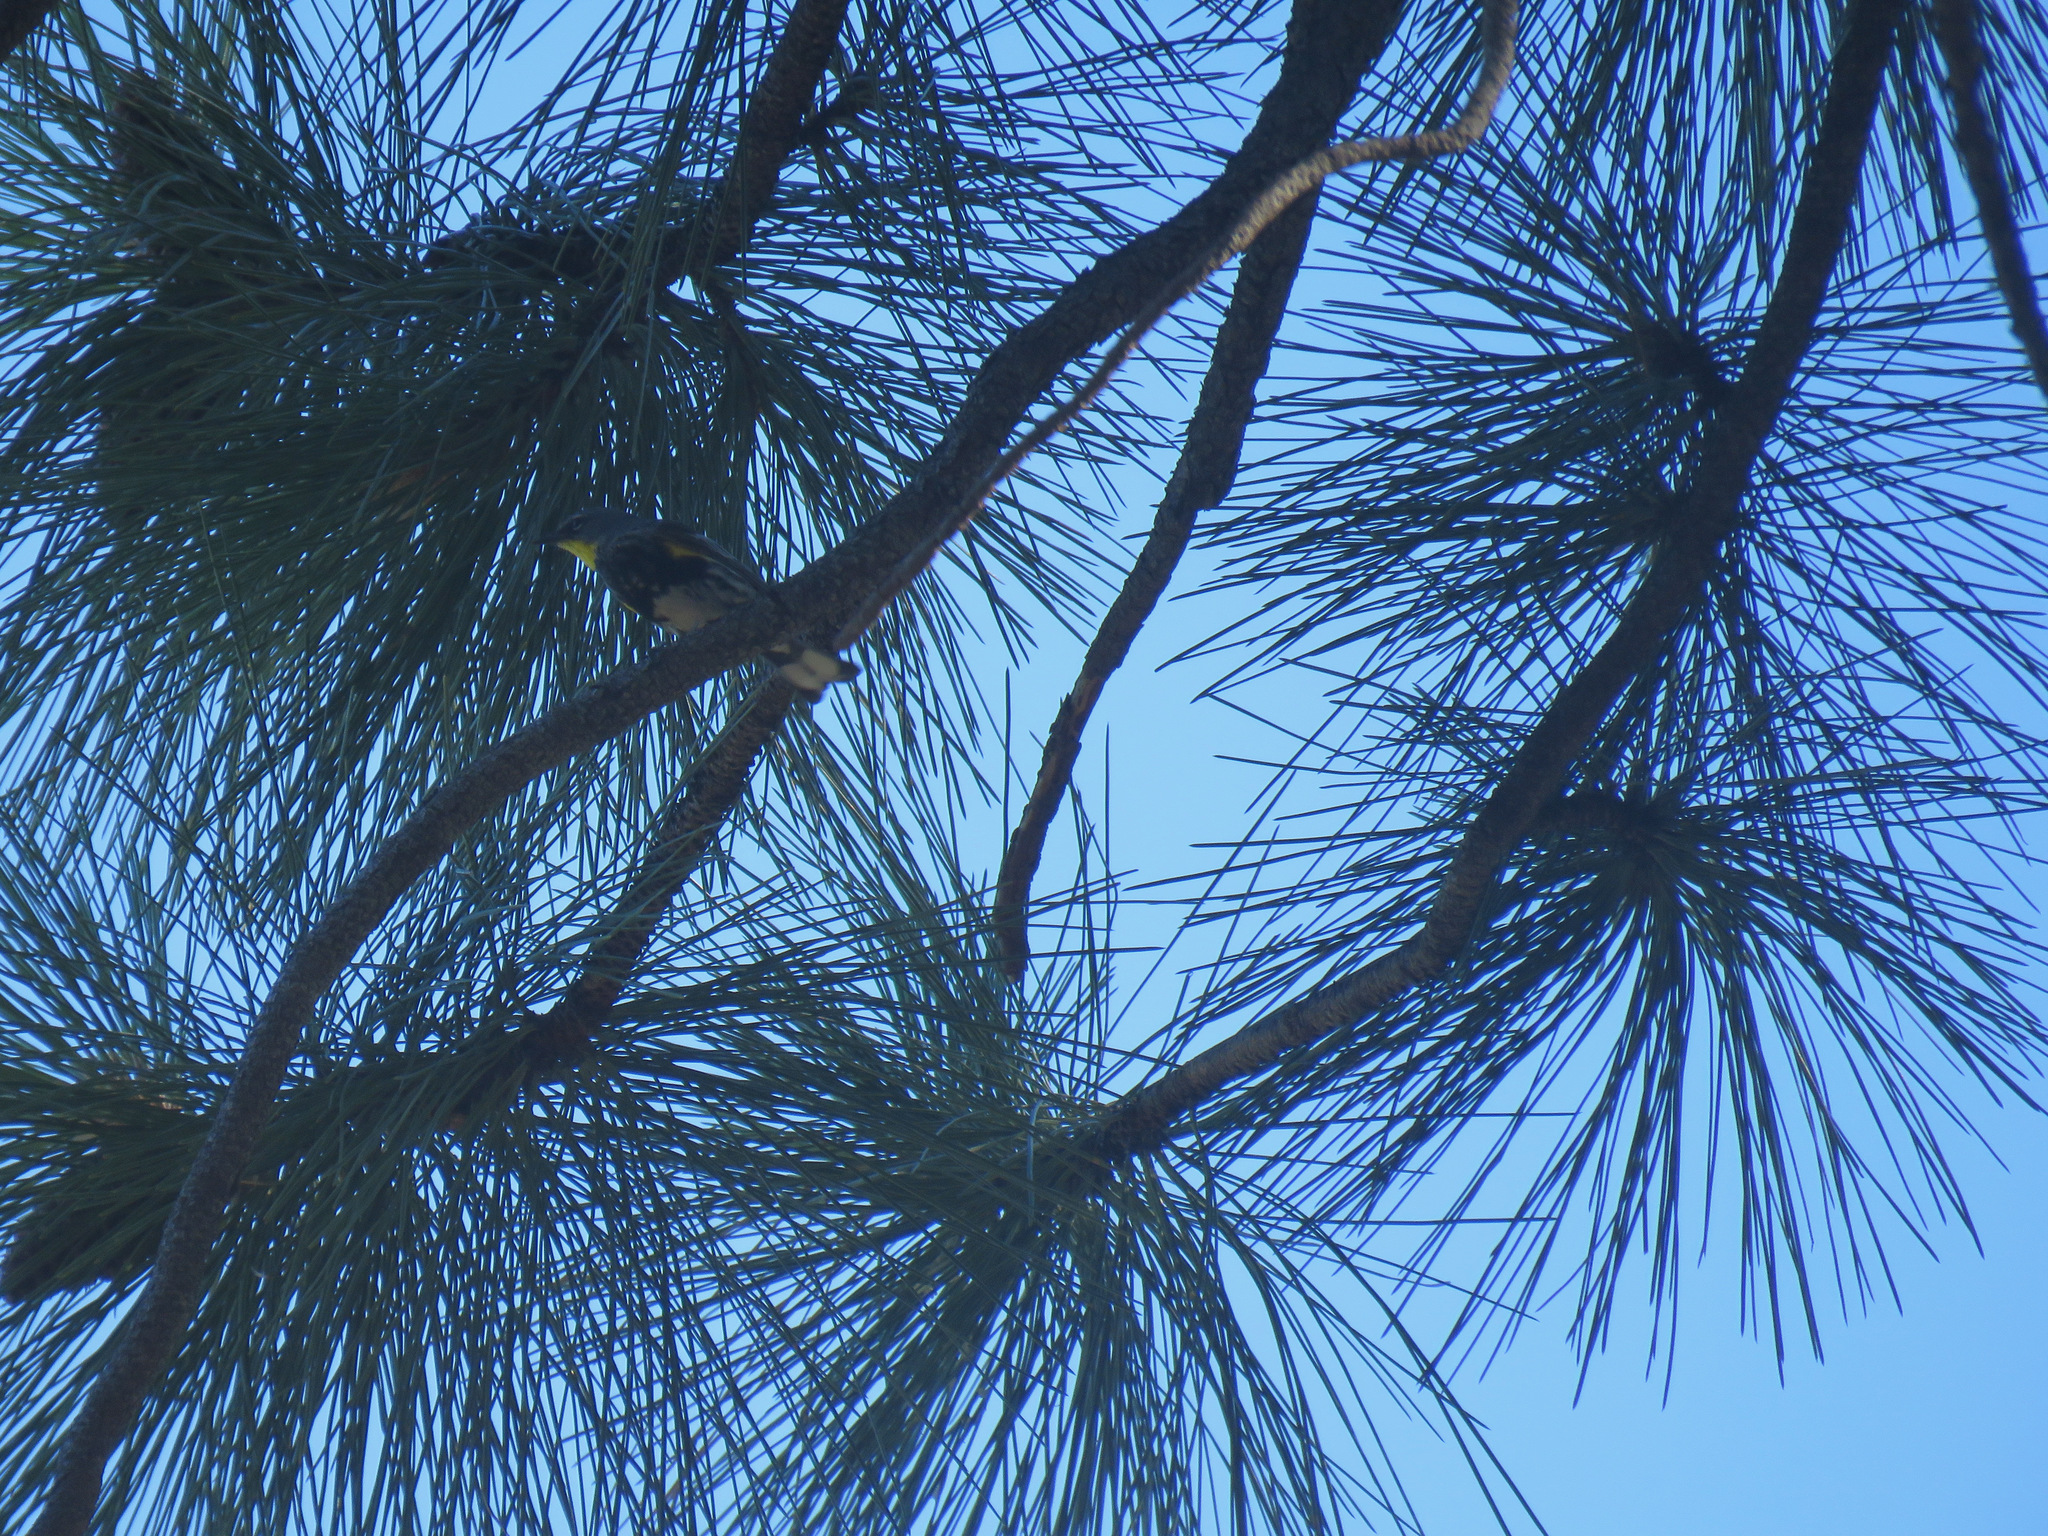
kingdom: Animalia
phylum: Chordata
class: Aves
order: Passeriformes
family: Parulidae
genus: Setophaga
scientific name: Setophaga coronata
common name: Myrtle warbler
